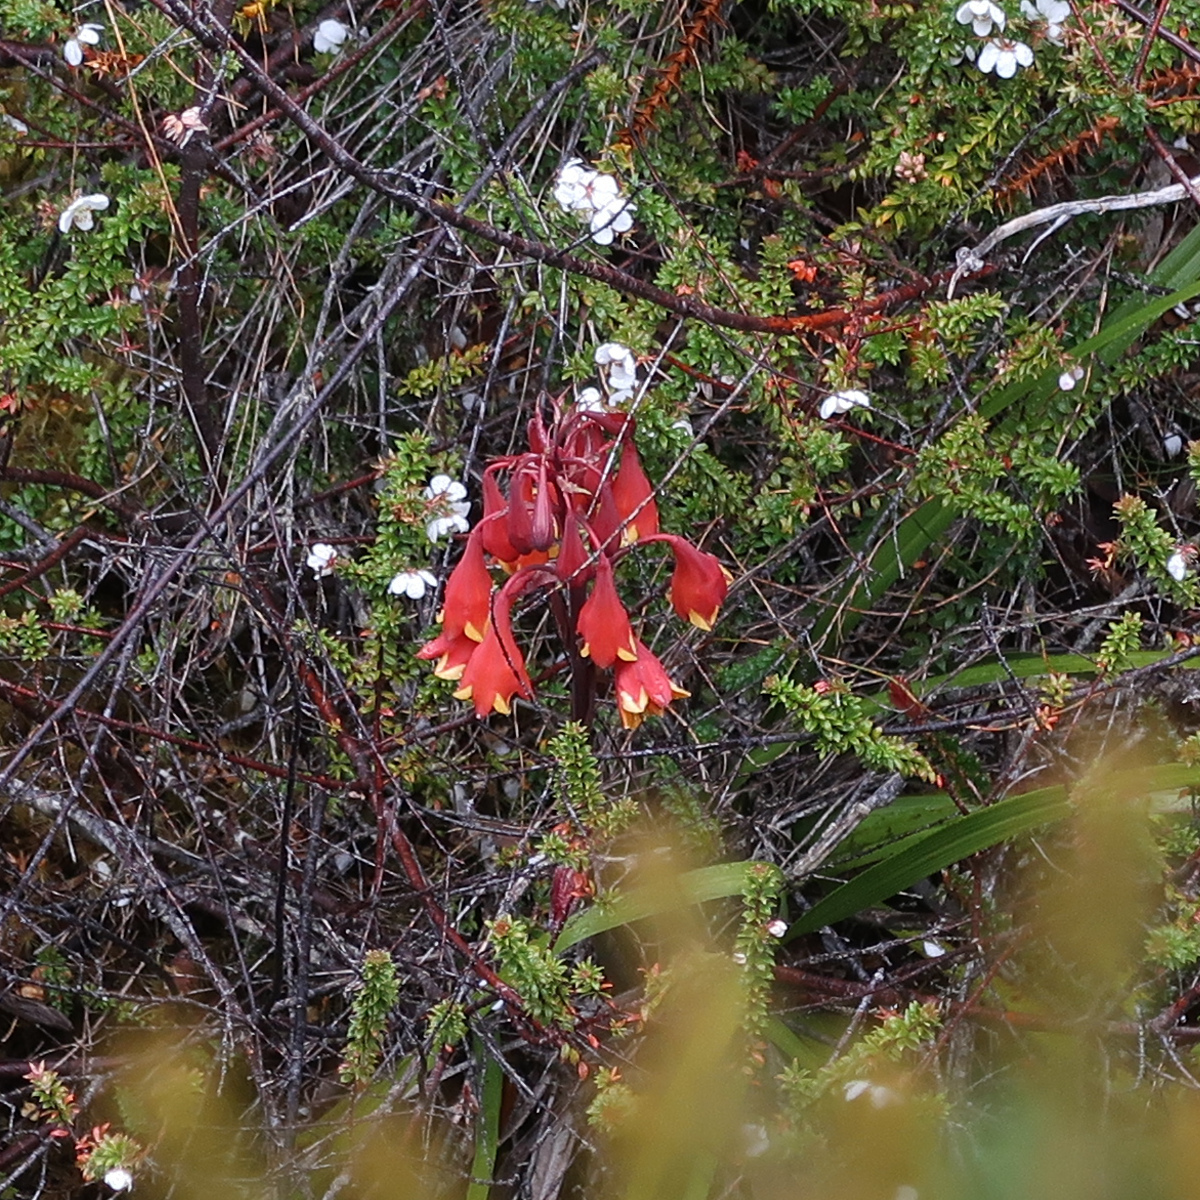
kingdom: Plantae
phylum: Tracheophyta
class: Liliopsida
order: Asparagales
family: Blandfordiaceae
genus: Blandfordia
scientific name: Blandfordia punicea
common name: Tasmanian christmas-bell
